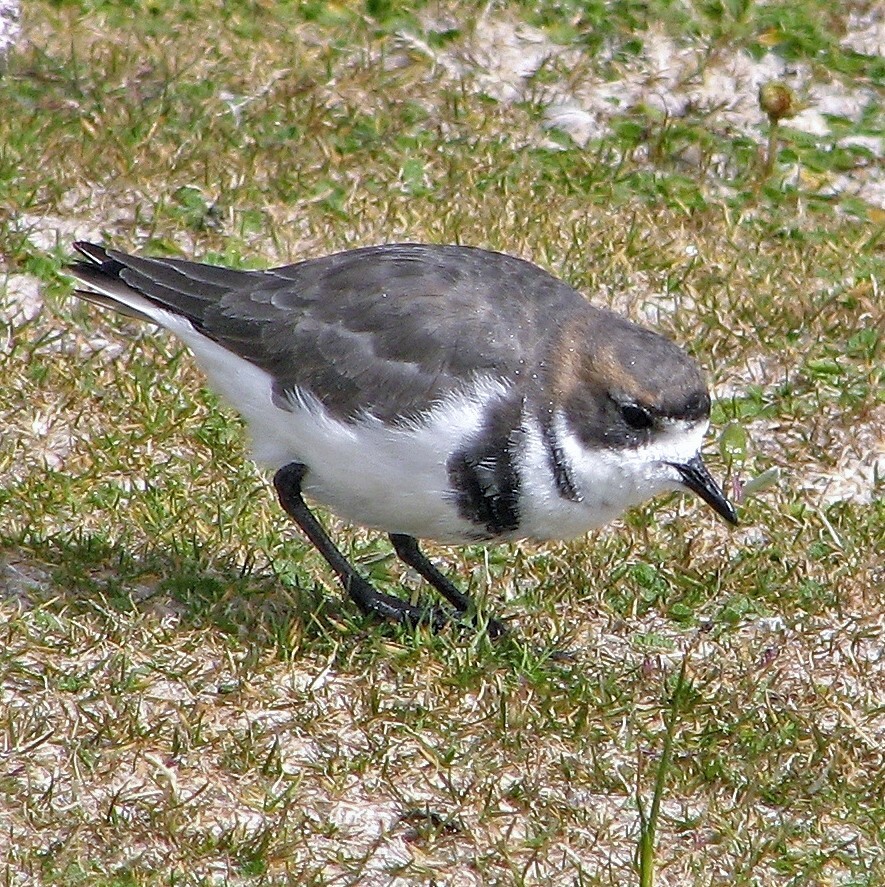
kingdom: Animalia
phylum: Chordata
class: Aves
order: Charadriiformes
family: Charadriidae
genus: Anarhynchus
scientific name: Anarhynchus
